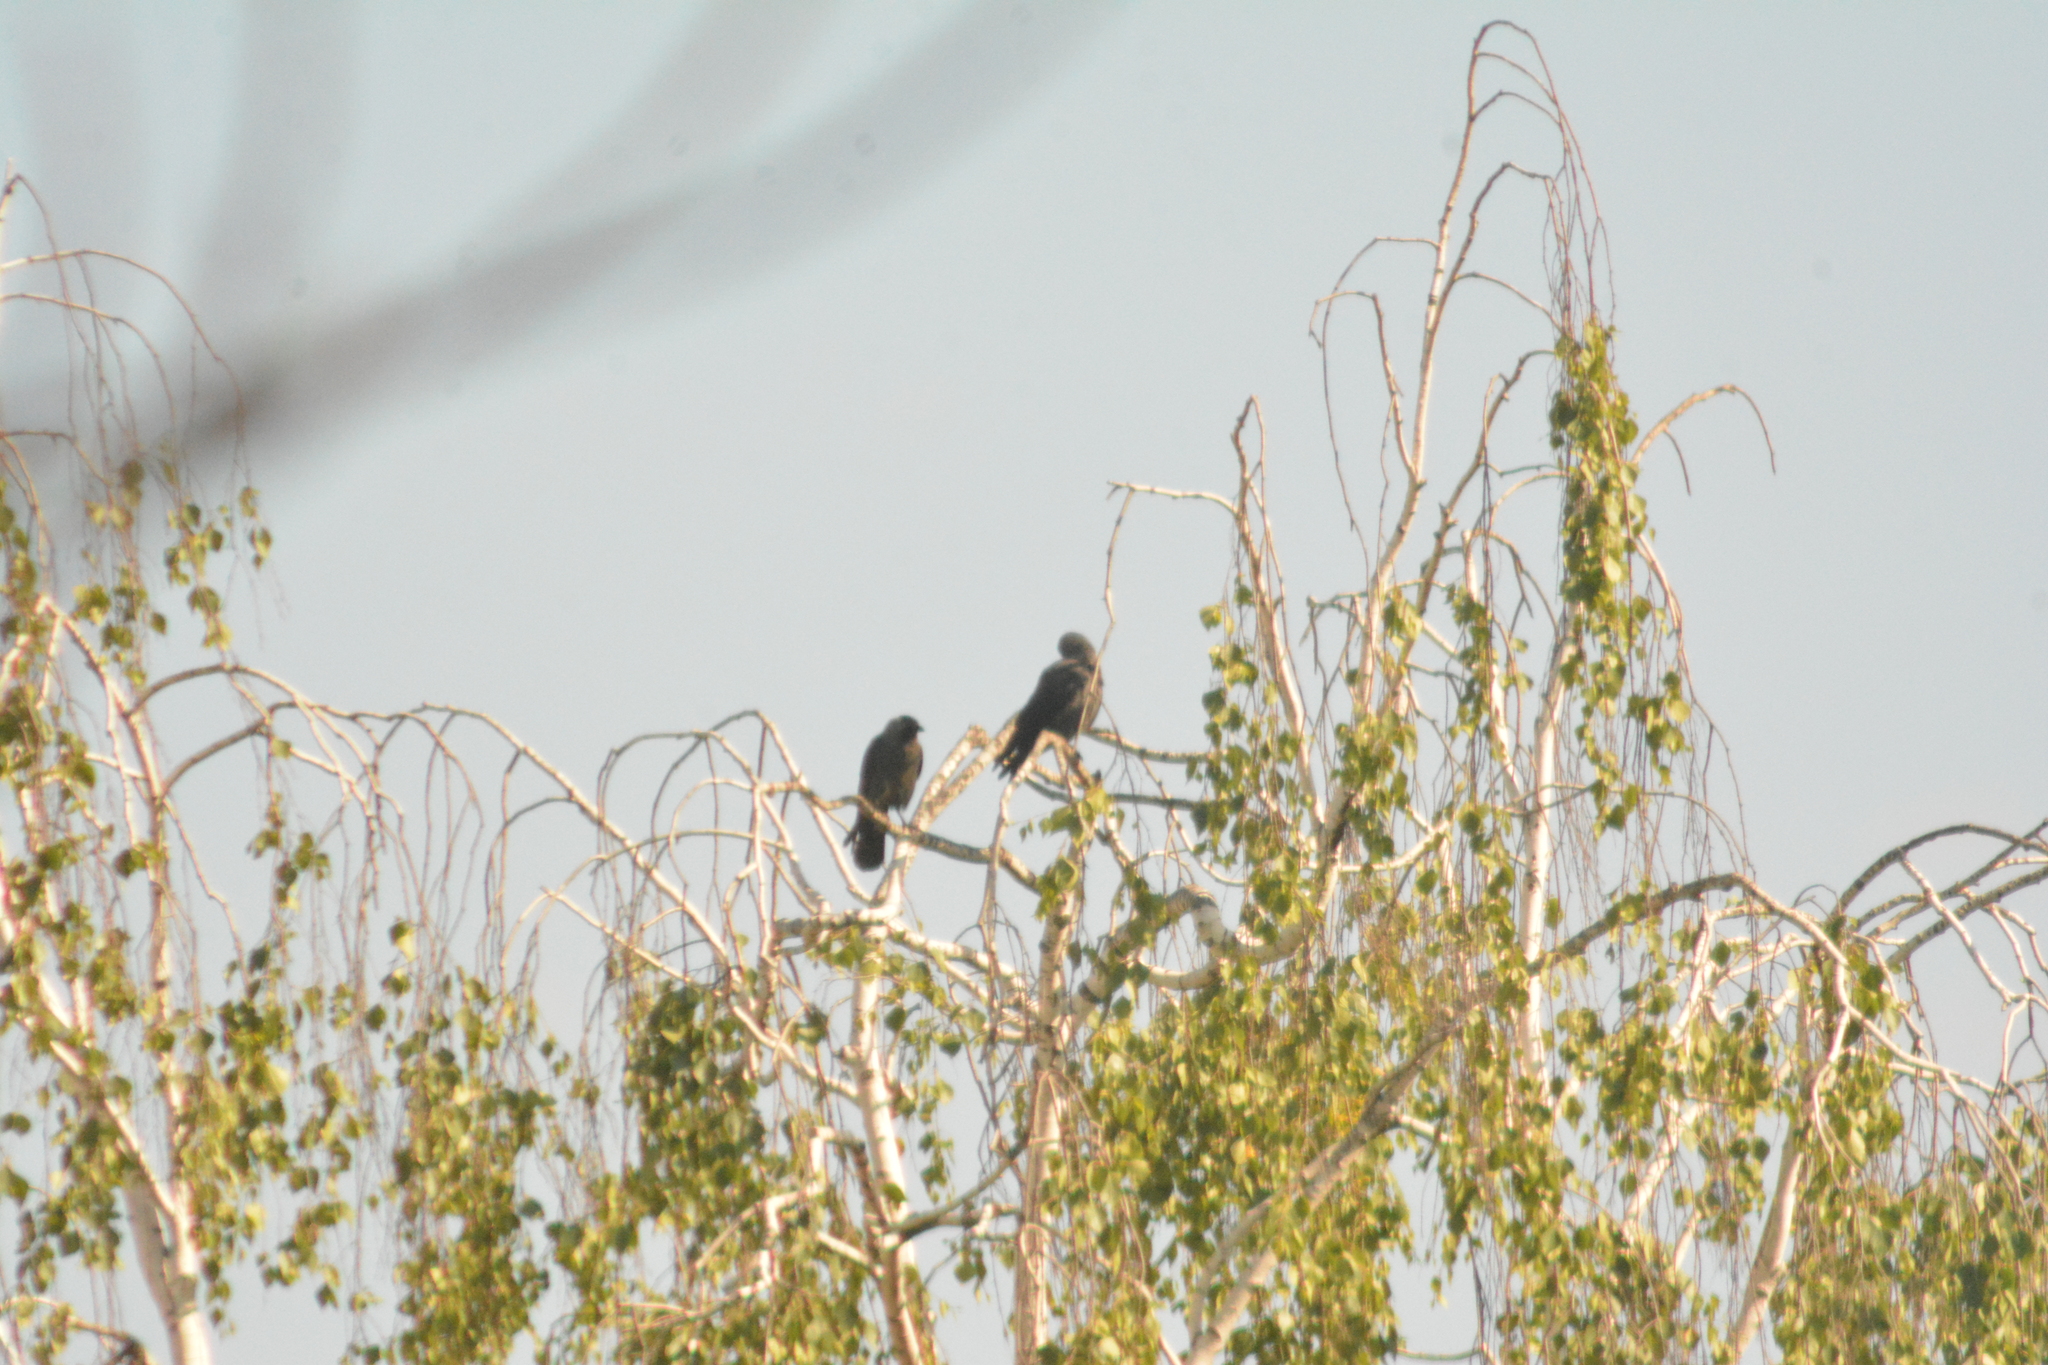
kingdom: Animalia
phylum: Chordata
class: Aves
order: Passeriformes
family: Corvidae
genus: Coloeus
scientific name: Coloeus monedula
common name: Western jackdaw
